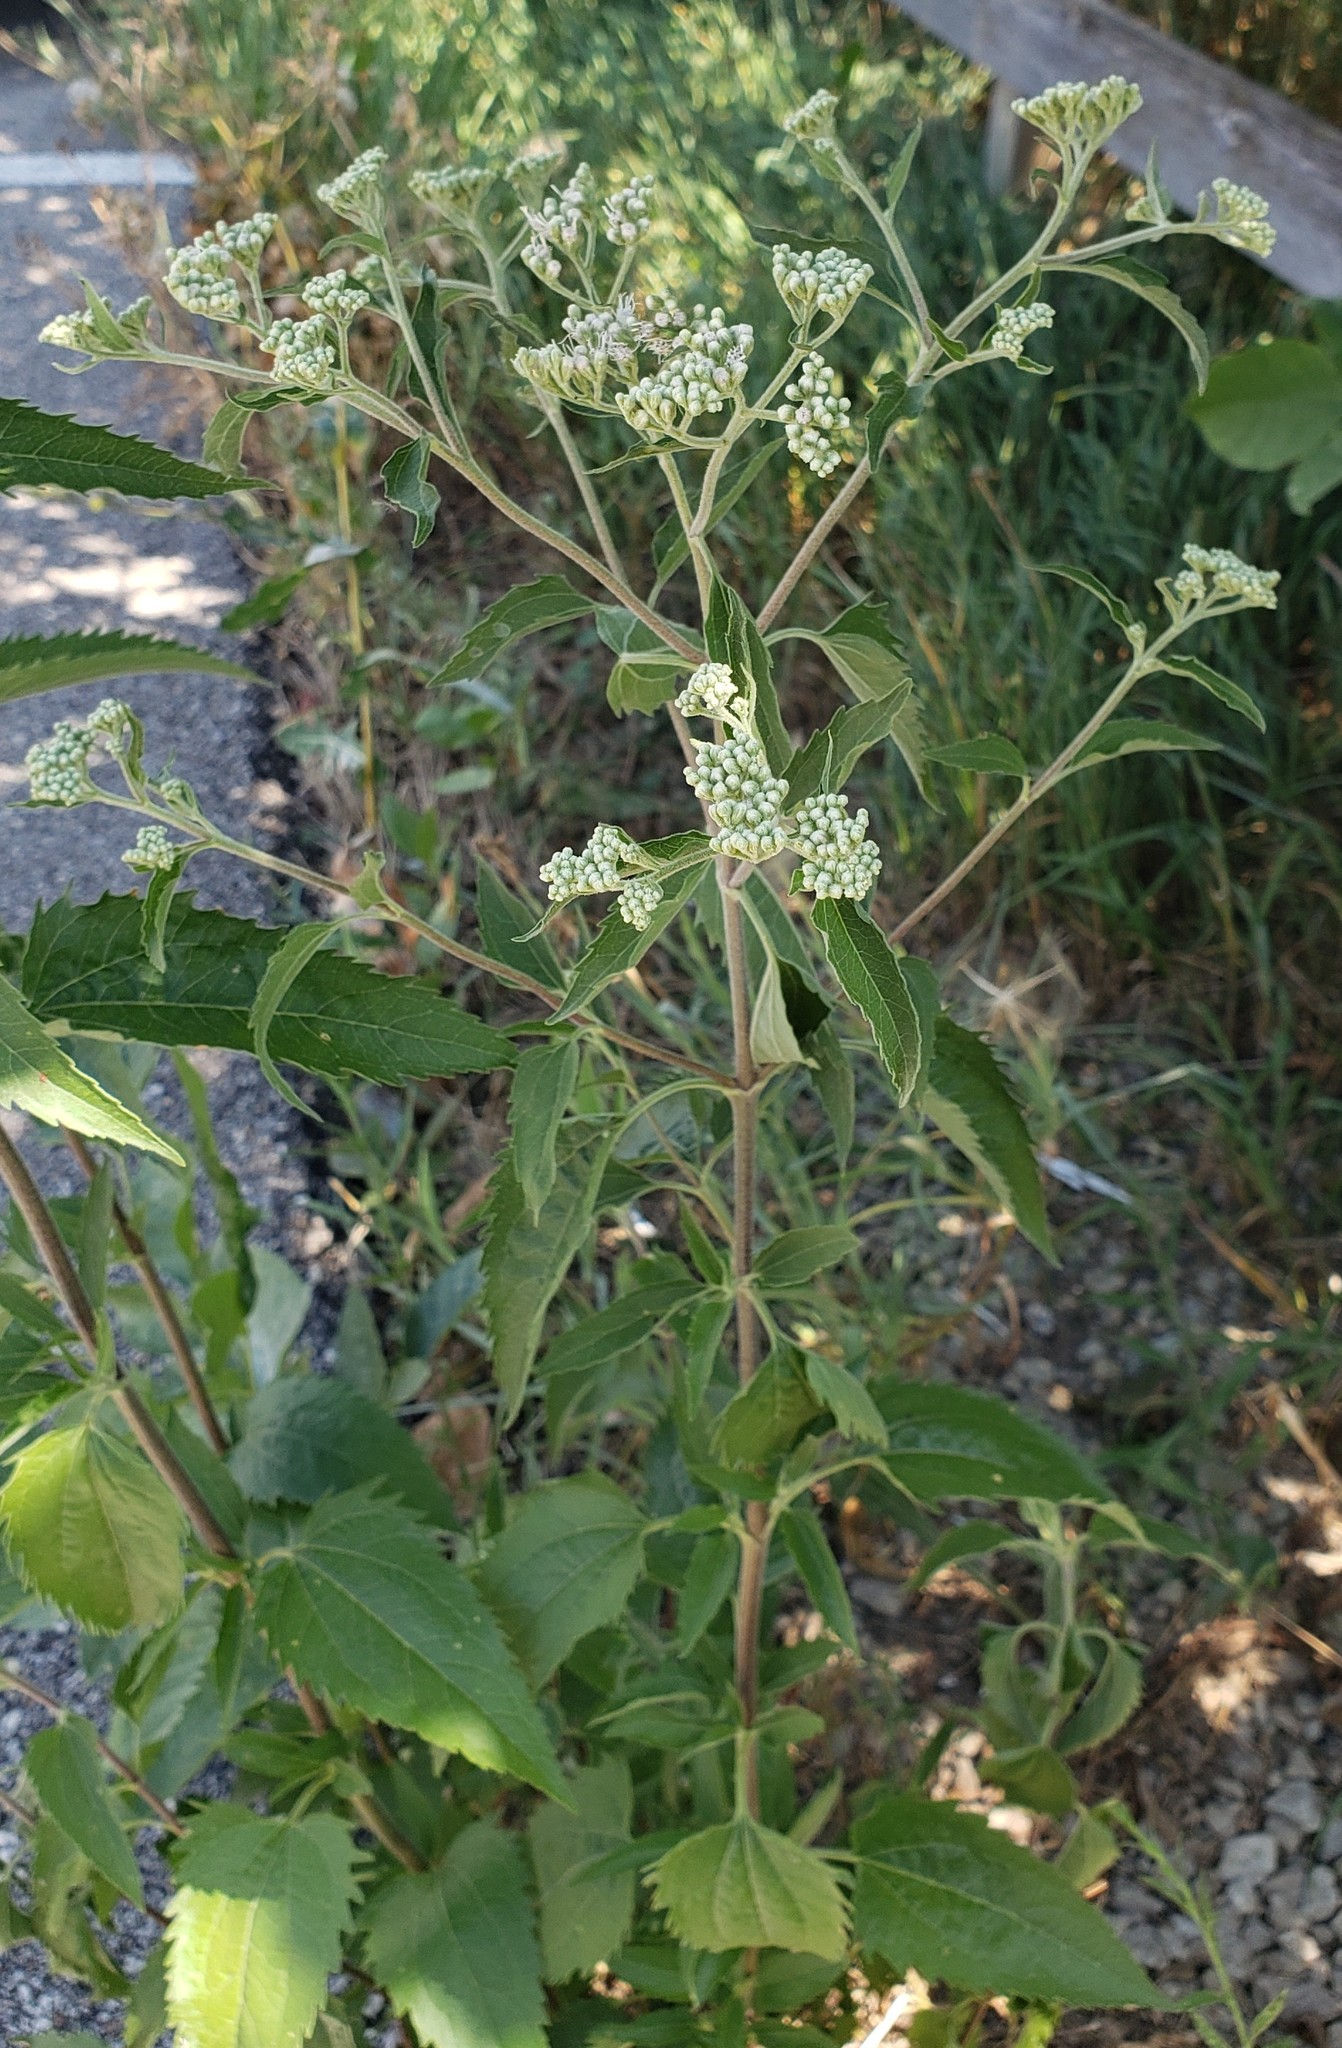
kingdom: Plantae
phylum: Tracheophyta
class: Magnoliopsida
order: Asterales
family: Asteraceae
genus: Eupatorium
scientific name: Eupatorium serotinum
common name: Late boneset
